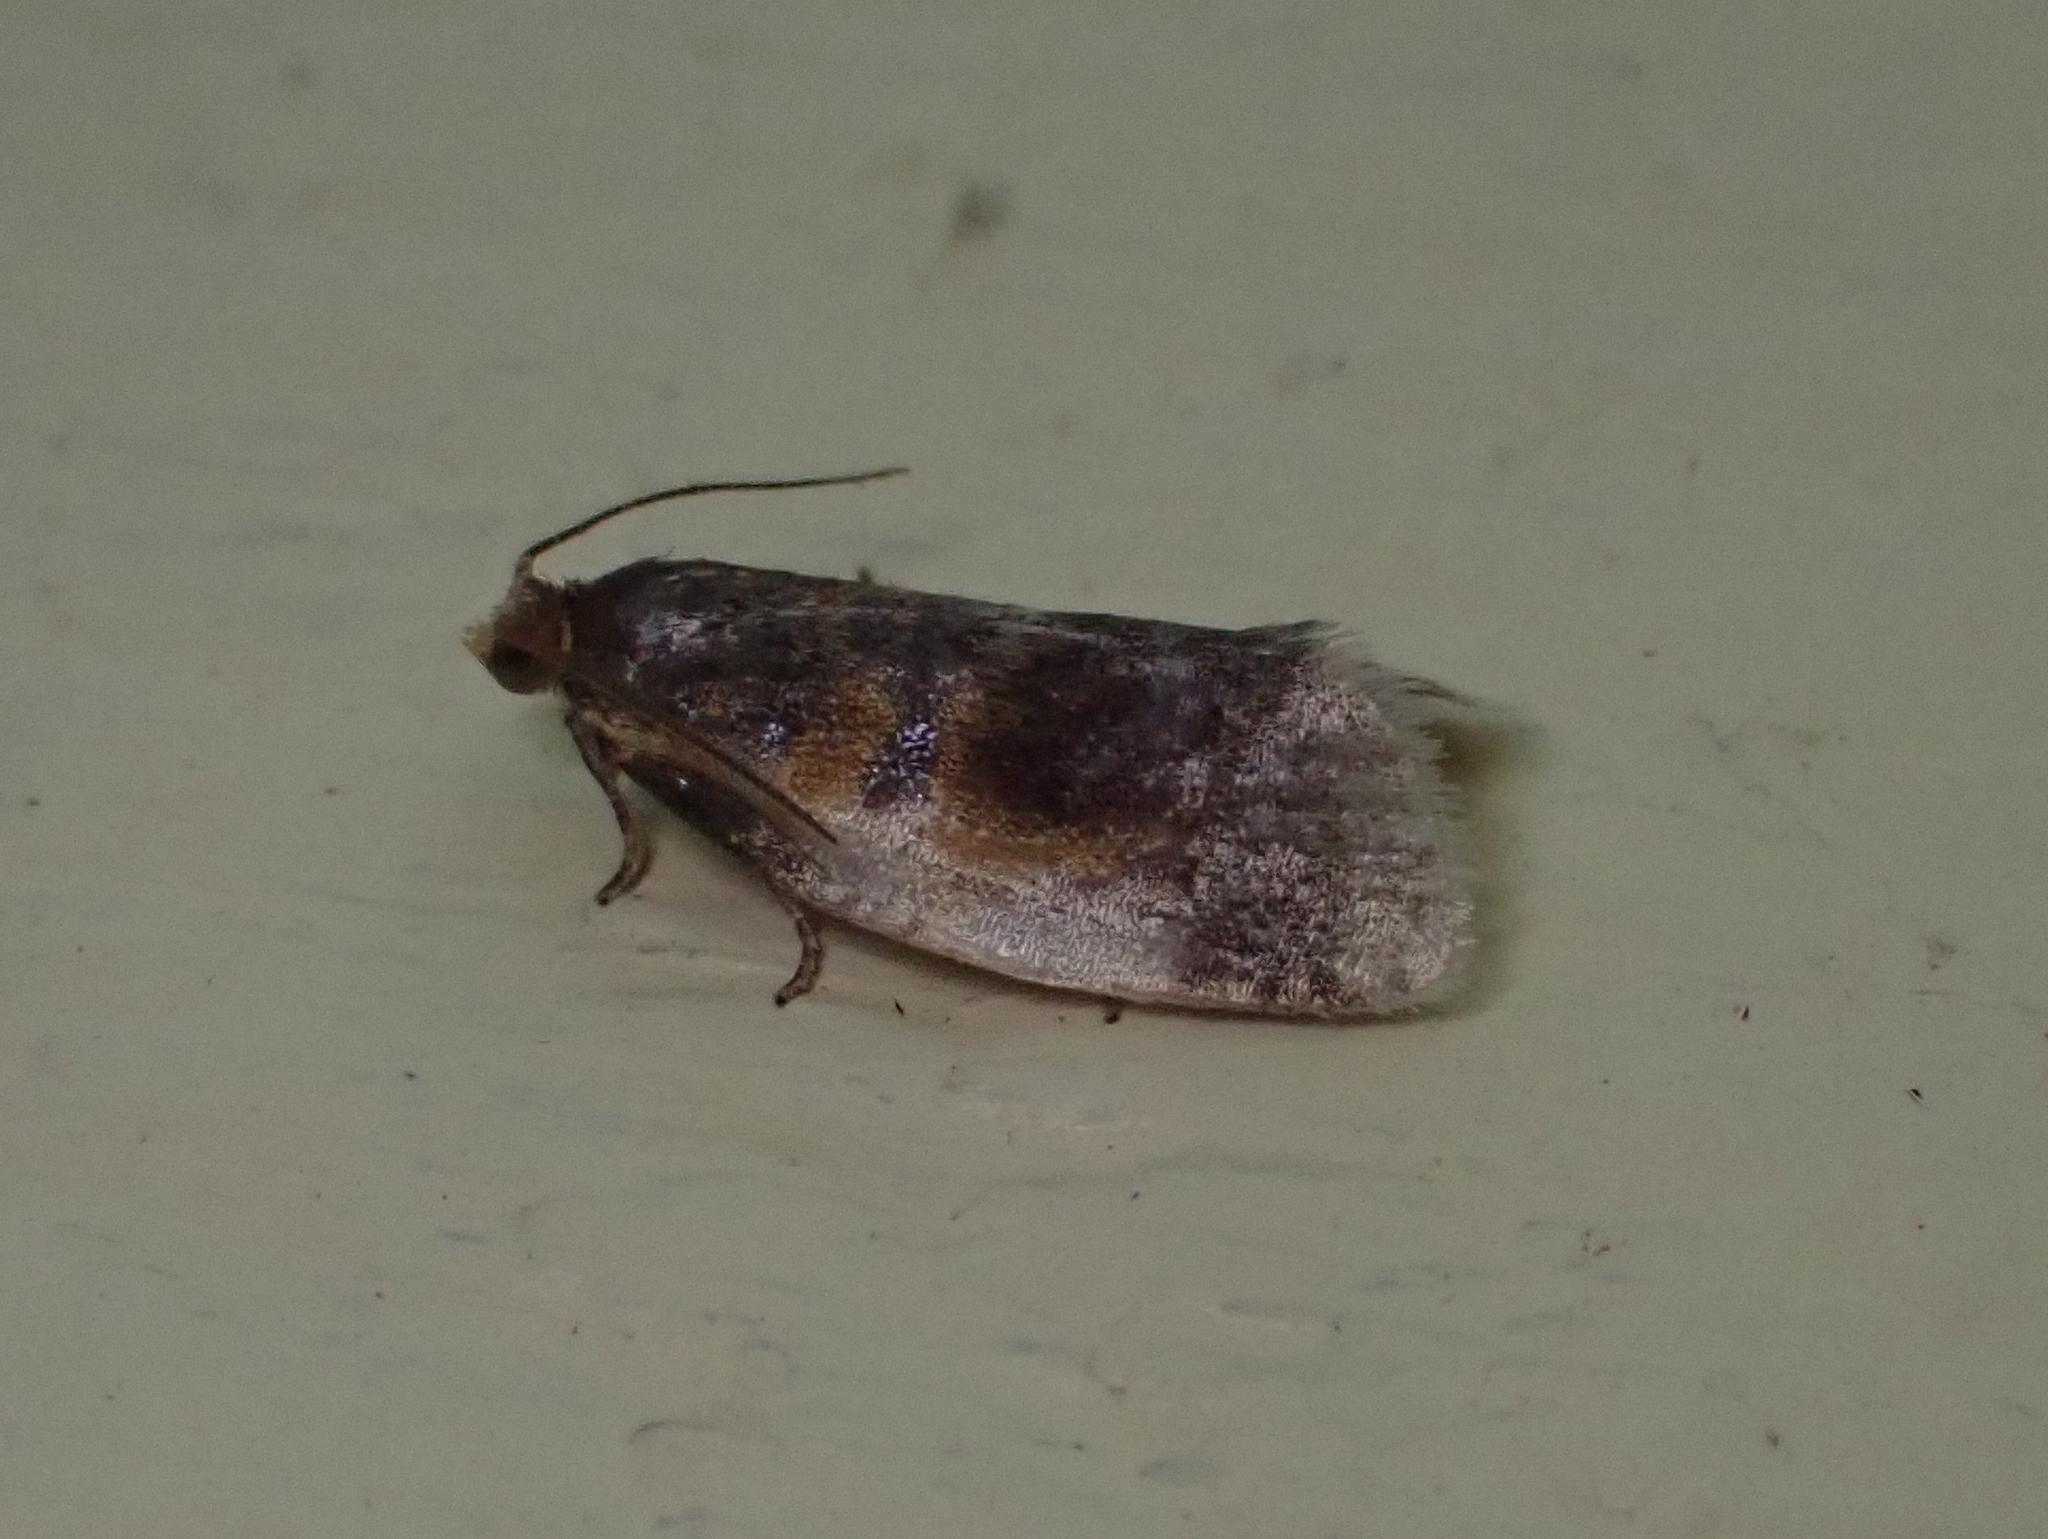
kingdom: Animalia
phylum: Arthropoda
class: Insecta
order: Lepidoptera
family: Tortricidae
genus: Clepsis
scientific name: Clepsis melaleucanus
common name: American apple tortrix
